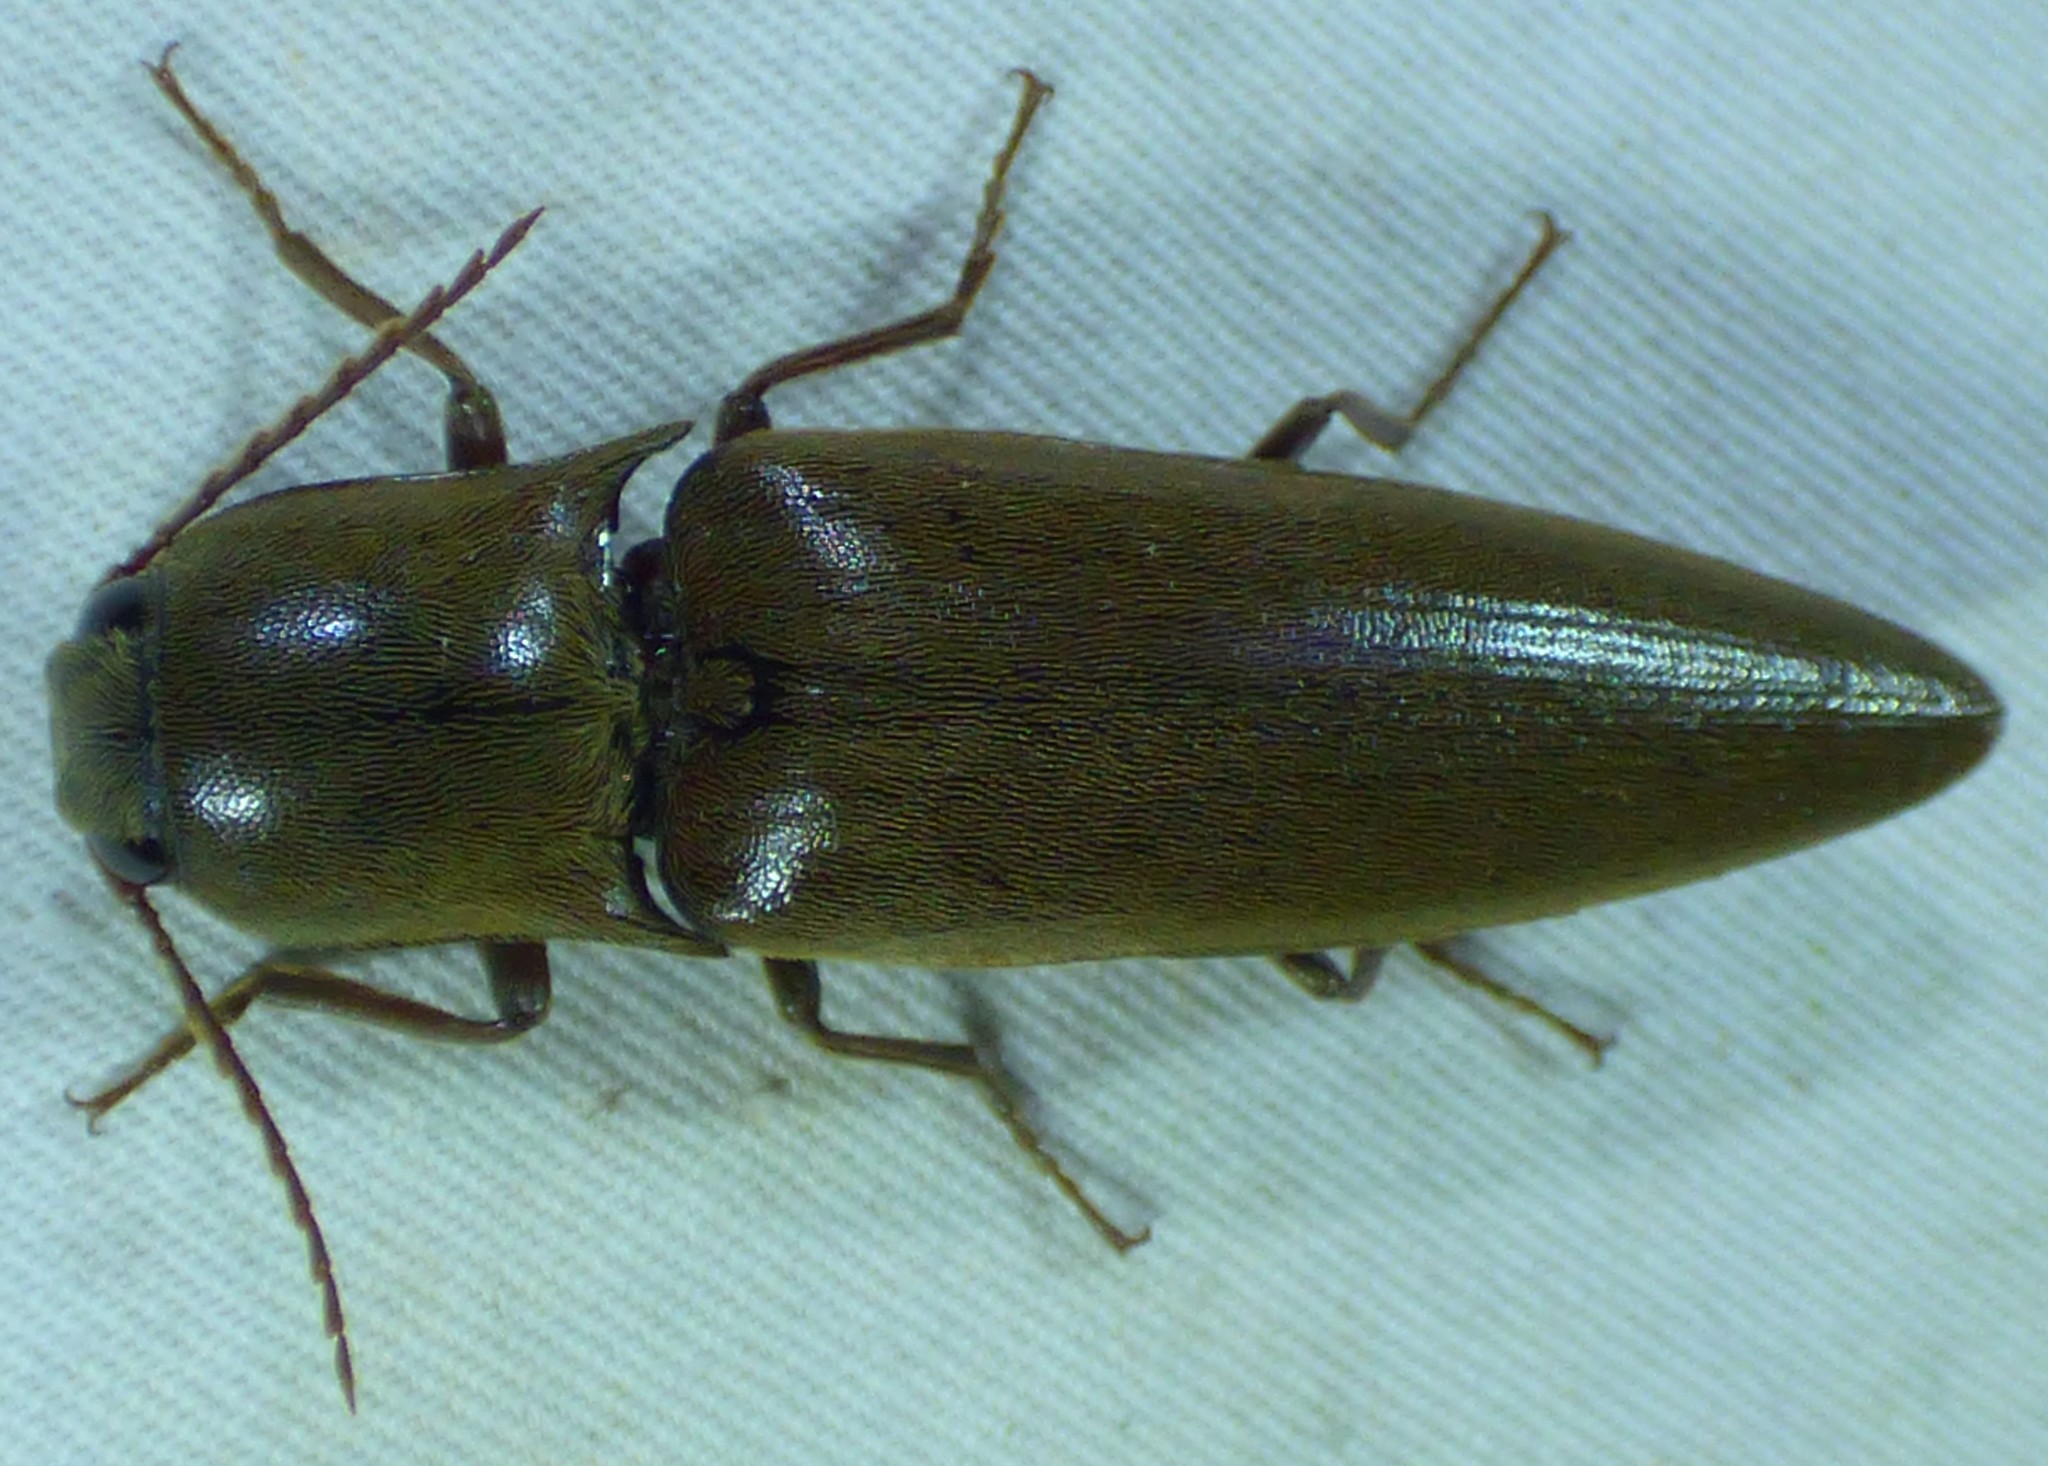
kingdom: Animalia
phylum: Arthropoda
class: Insecta
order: Coleoptera
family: Elateridae
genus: Orthostethus
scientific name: Orthostethus infuscatus
